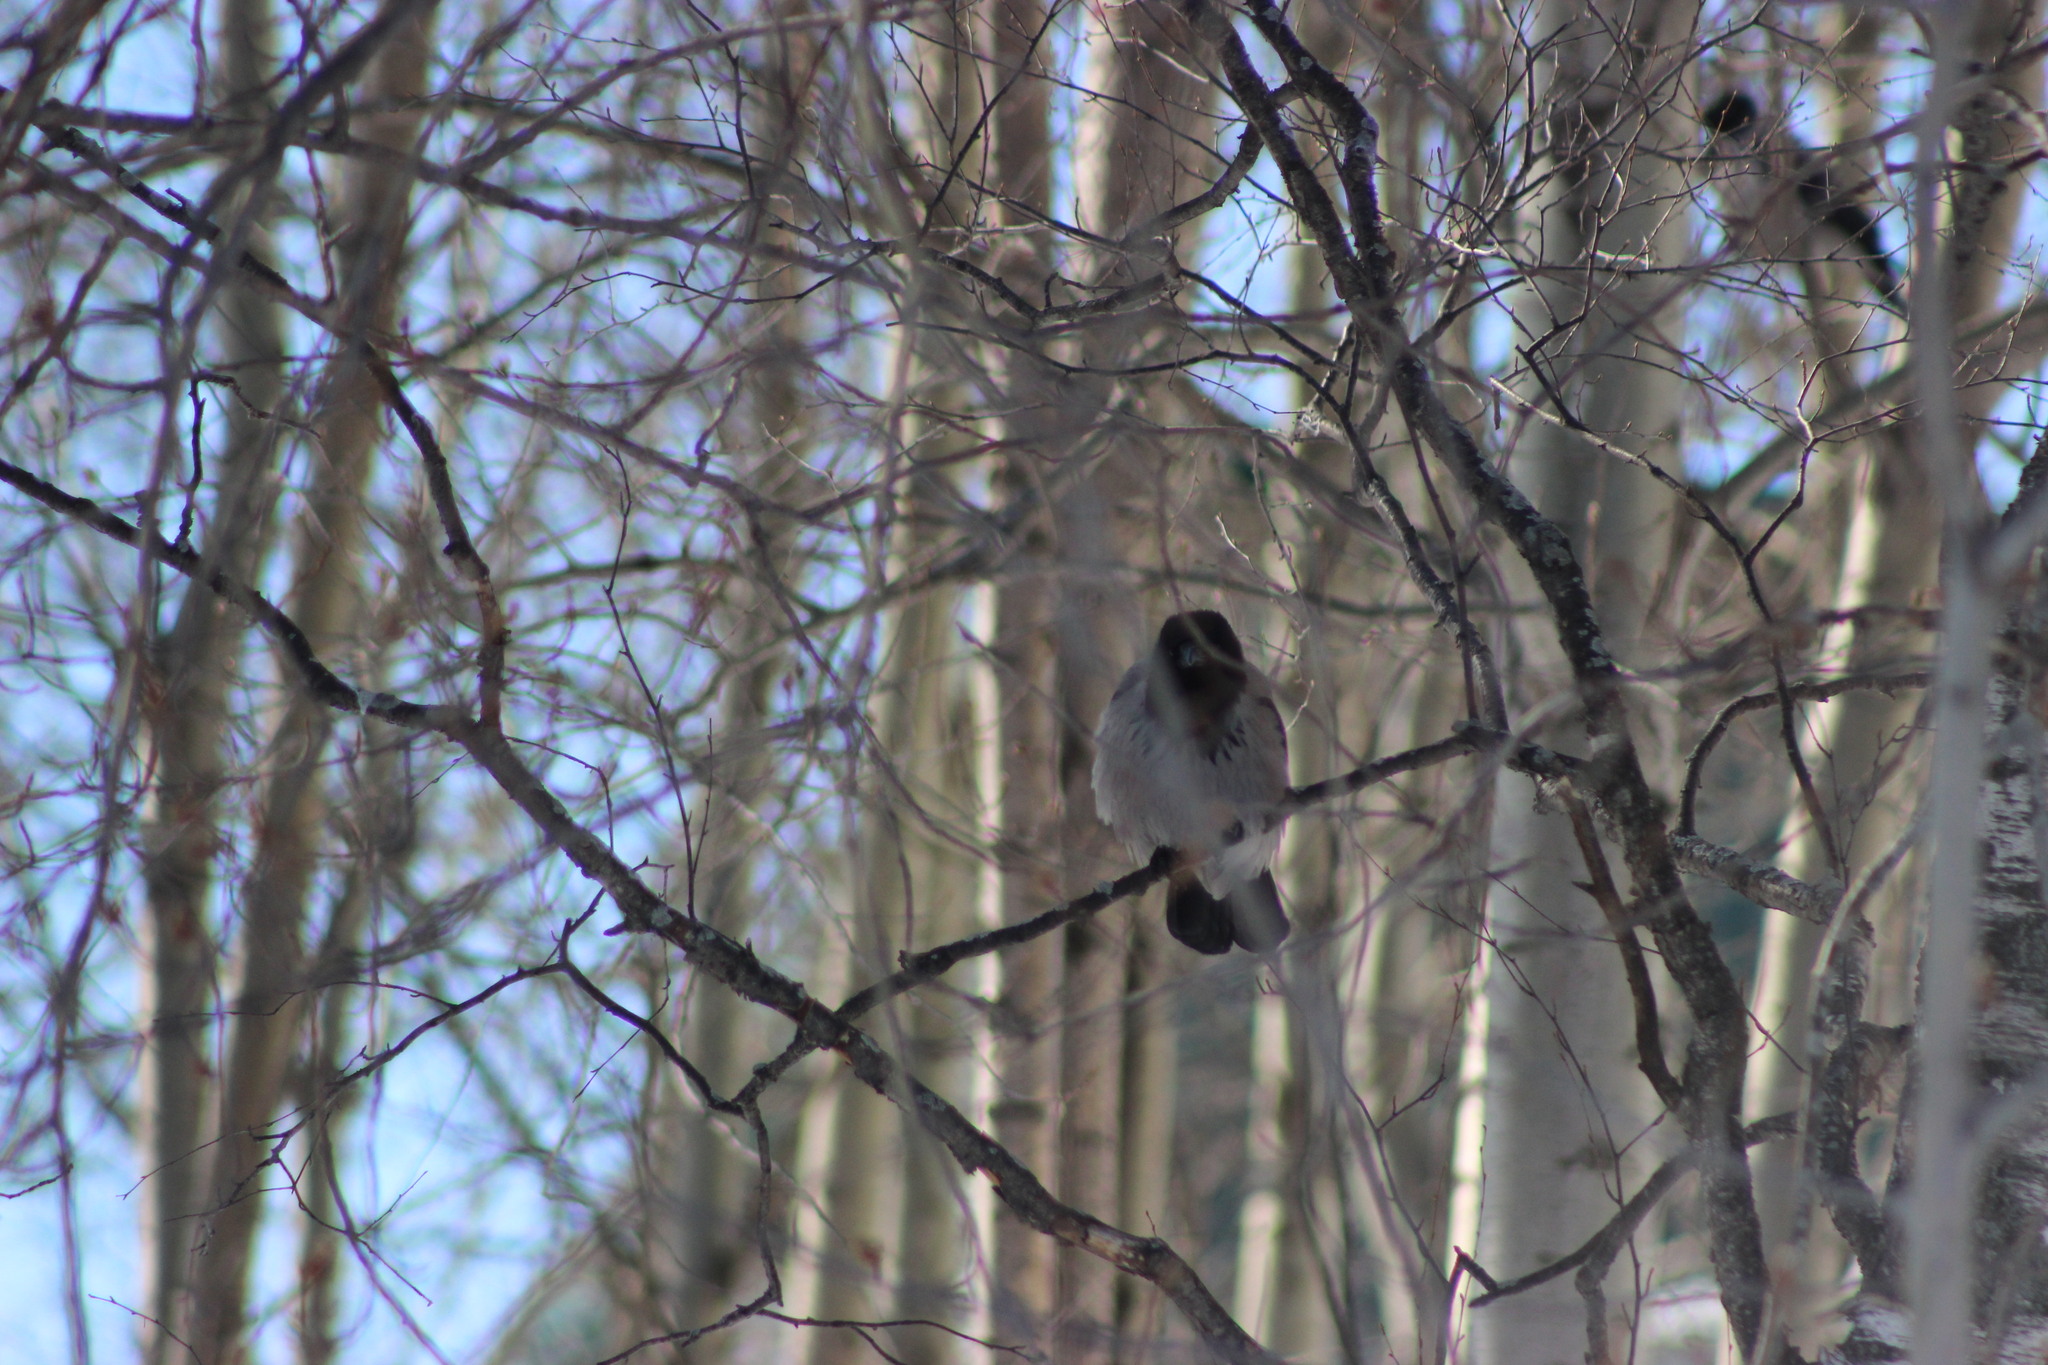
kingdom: Animalia
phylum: Chordata
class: Aves
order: Passeriformes
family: Corvidae
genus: Corvus
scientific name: Corvus cornix
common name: Hooded crow
